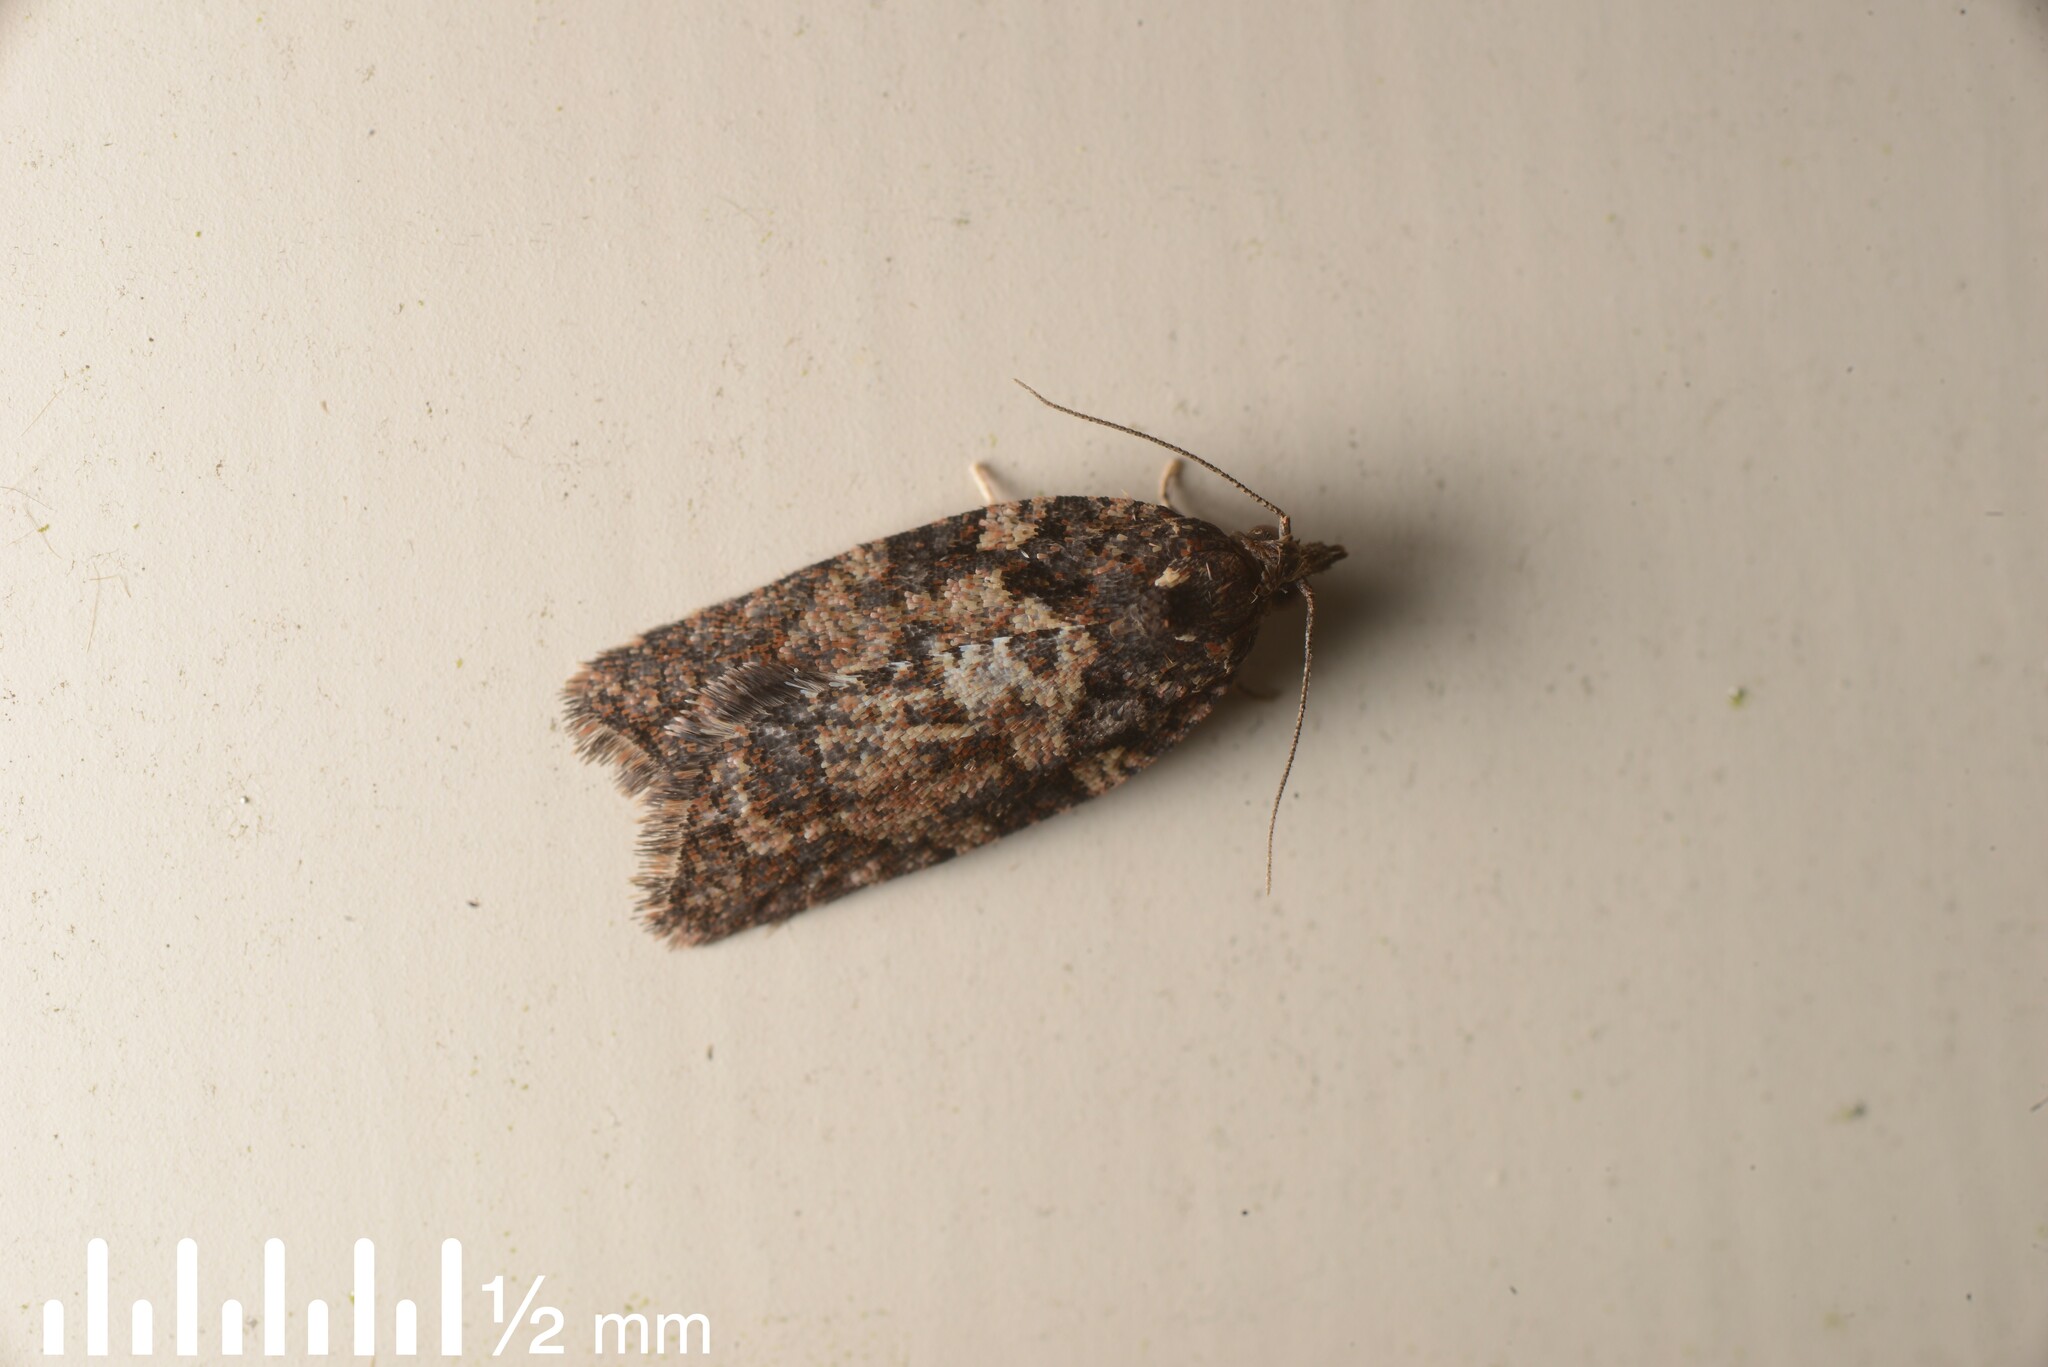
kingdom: Animalia
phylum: Arthropoda
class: Insecta
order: Lepidoptera
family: Tortricidae
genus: Capua
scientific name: Capua intractana
